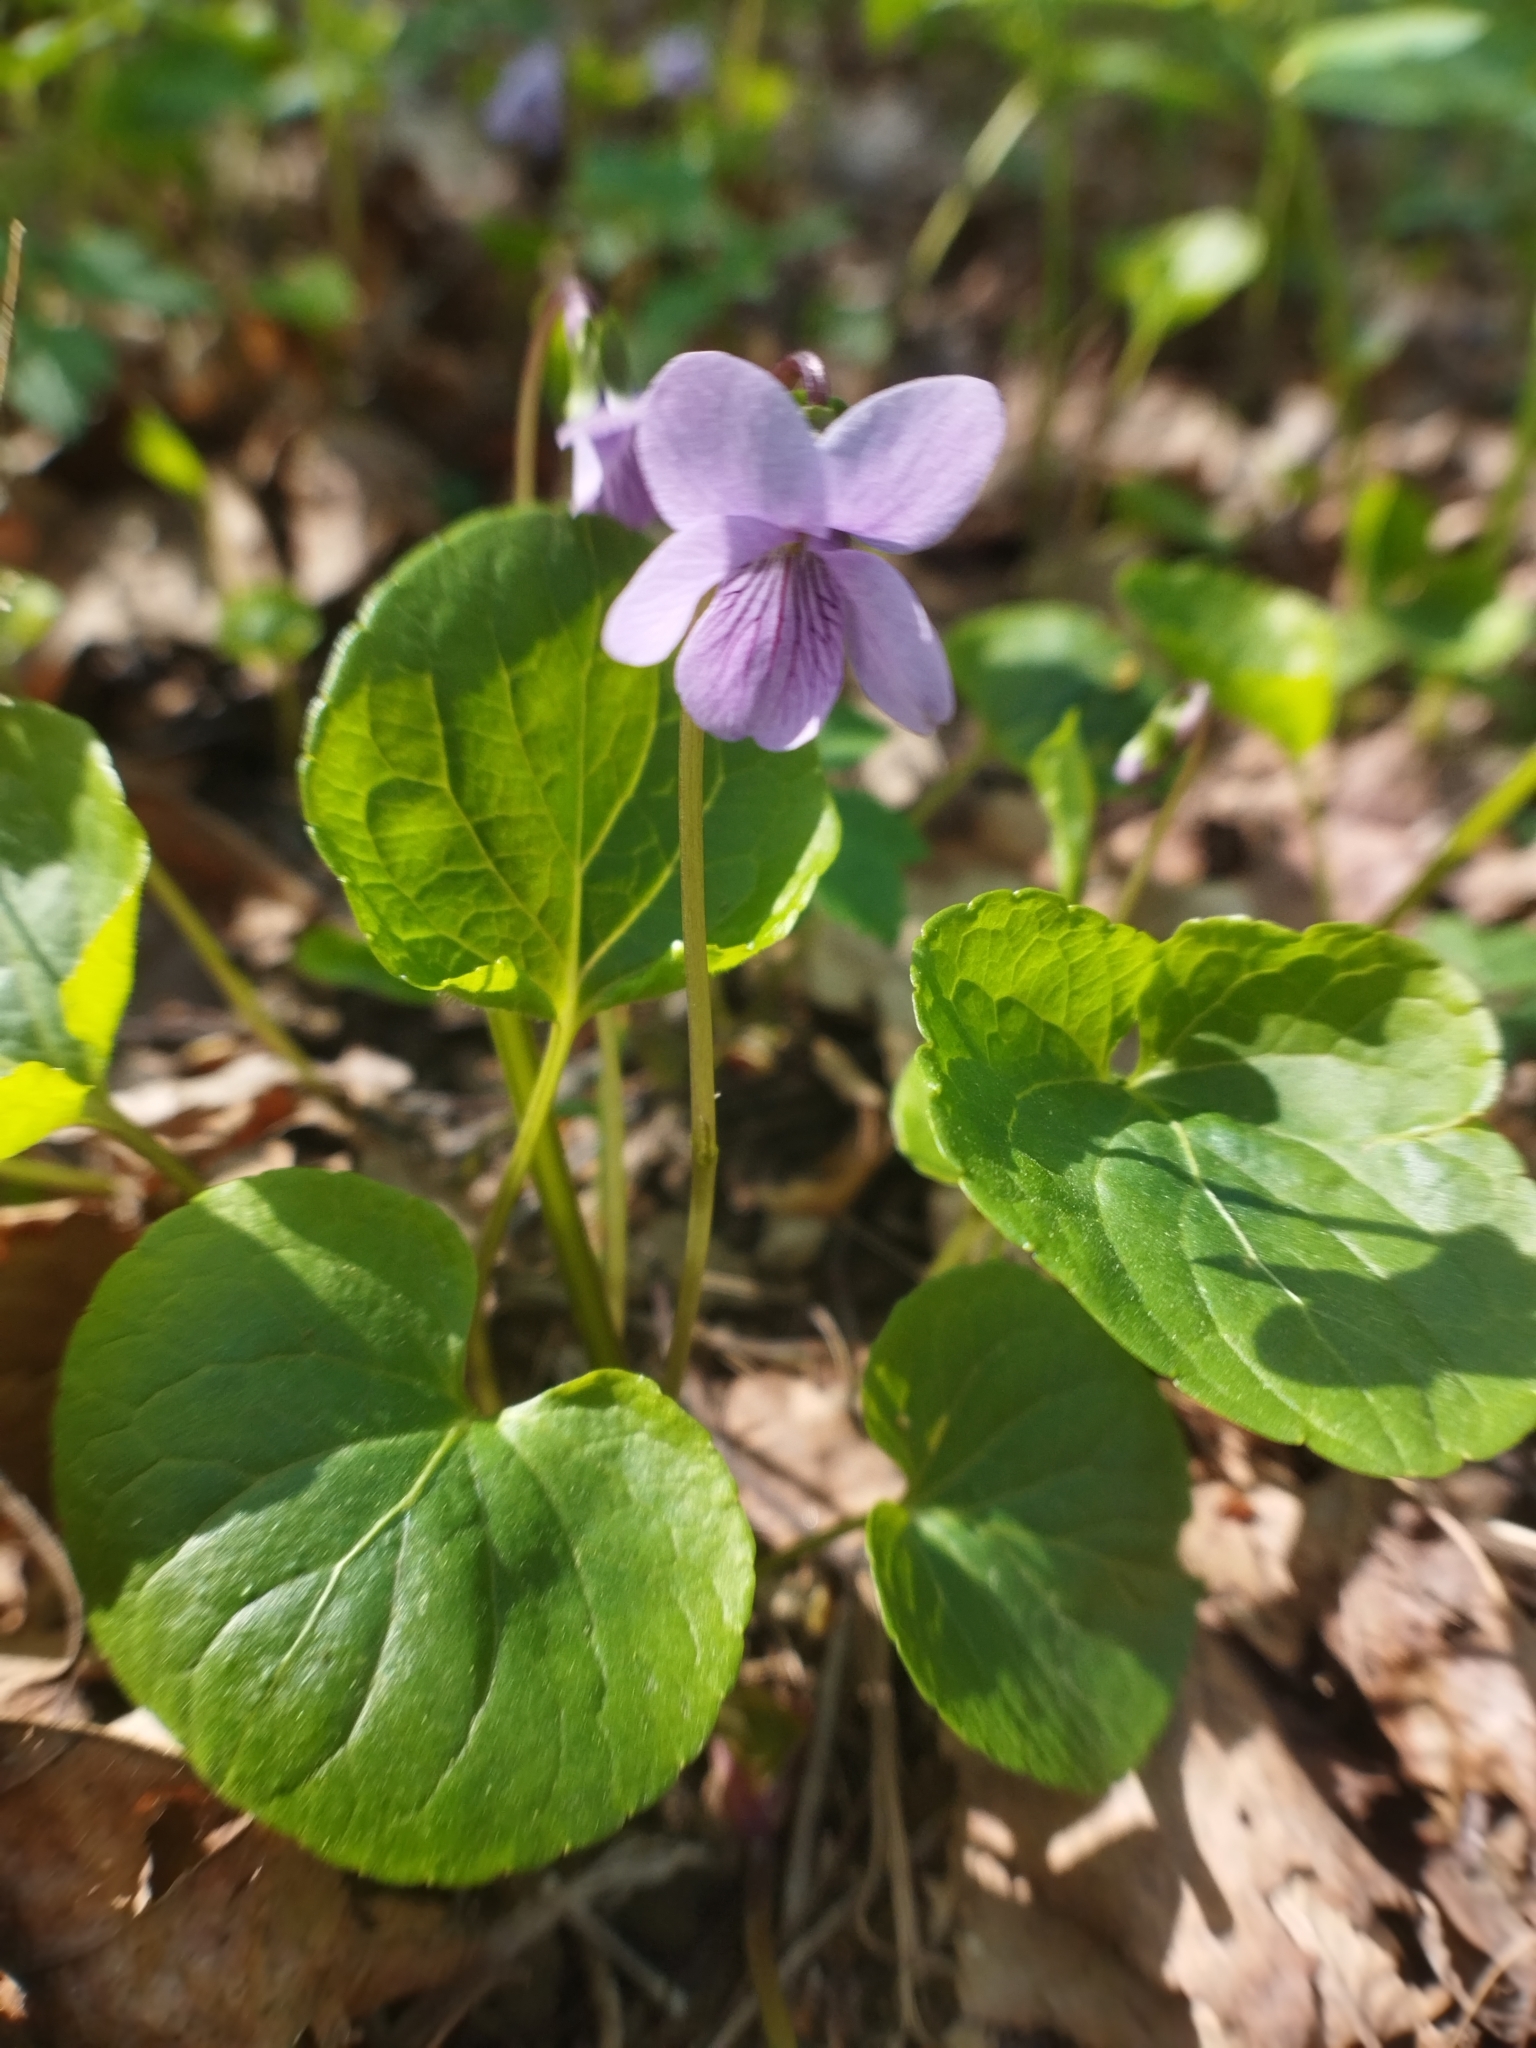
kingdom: Plantae
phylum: Tracheophyta
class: Magnoliopsida
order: Malpighiales
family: Violaceae
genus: Viola
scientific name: Viola ruprechtiana
